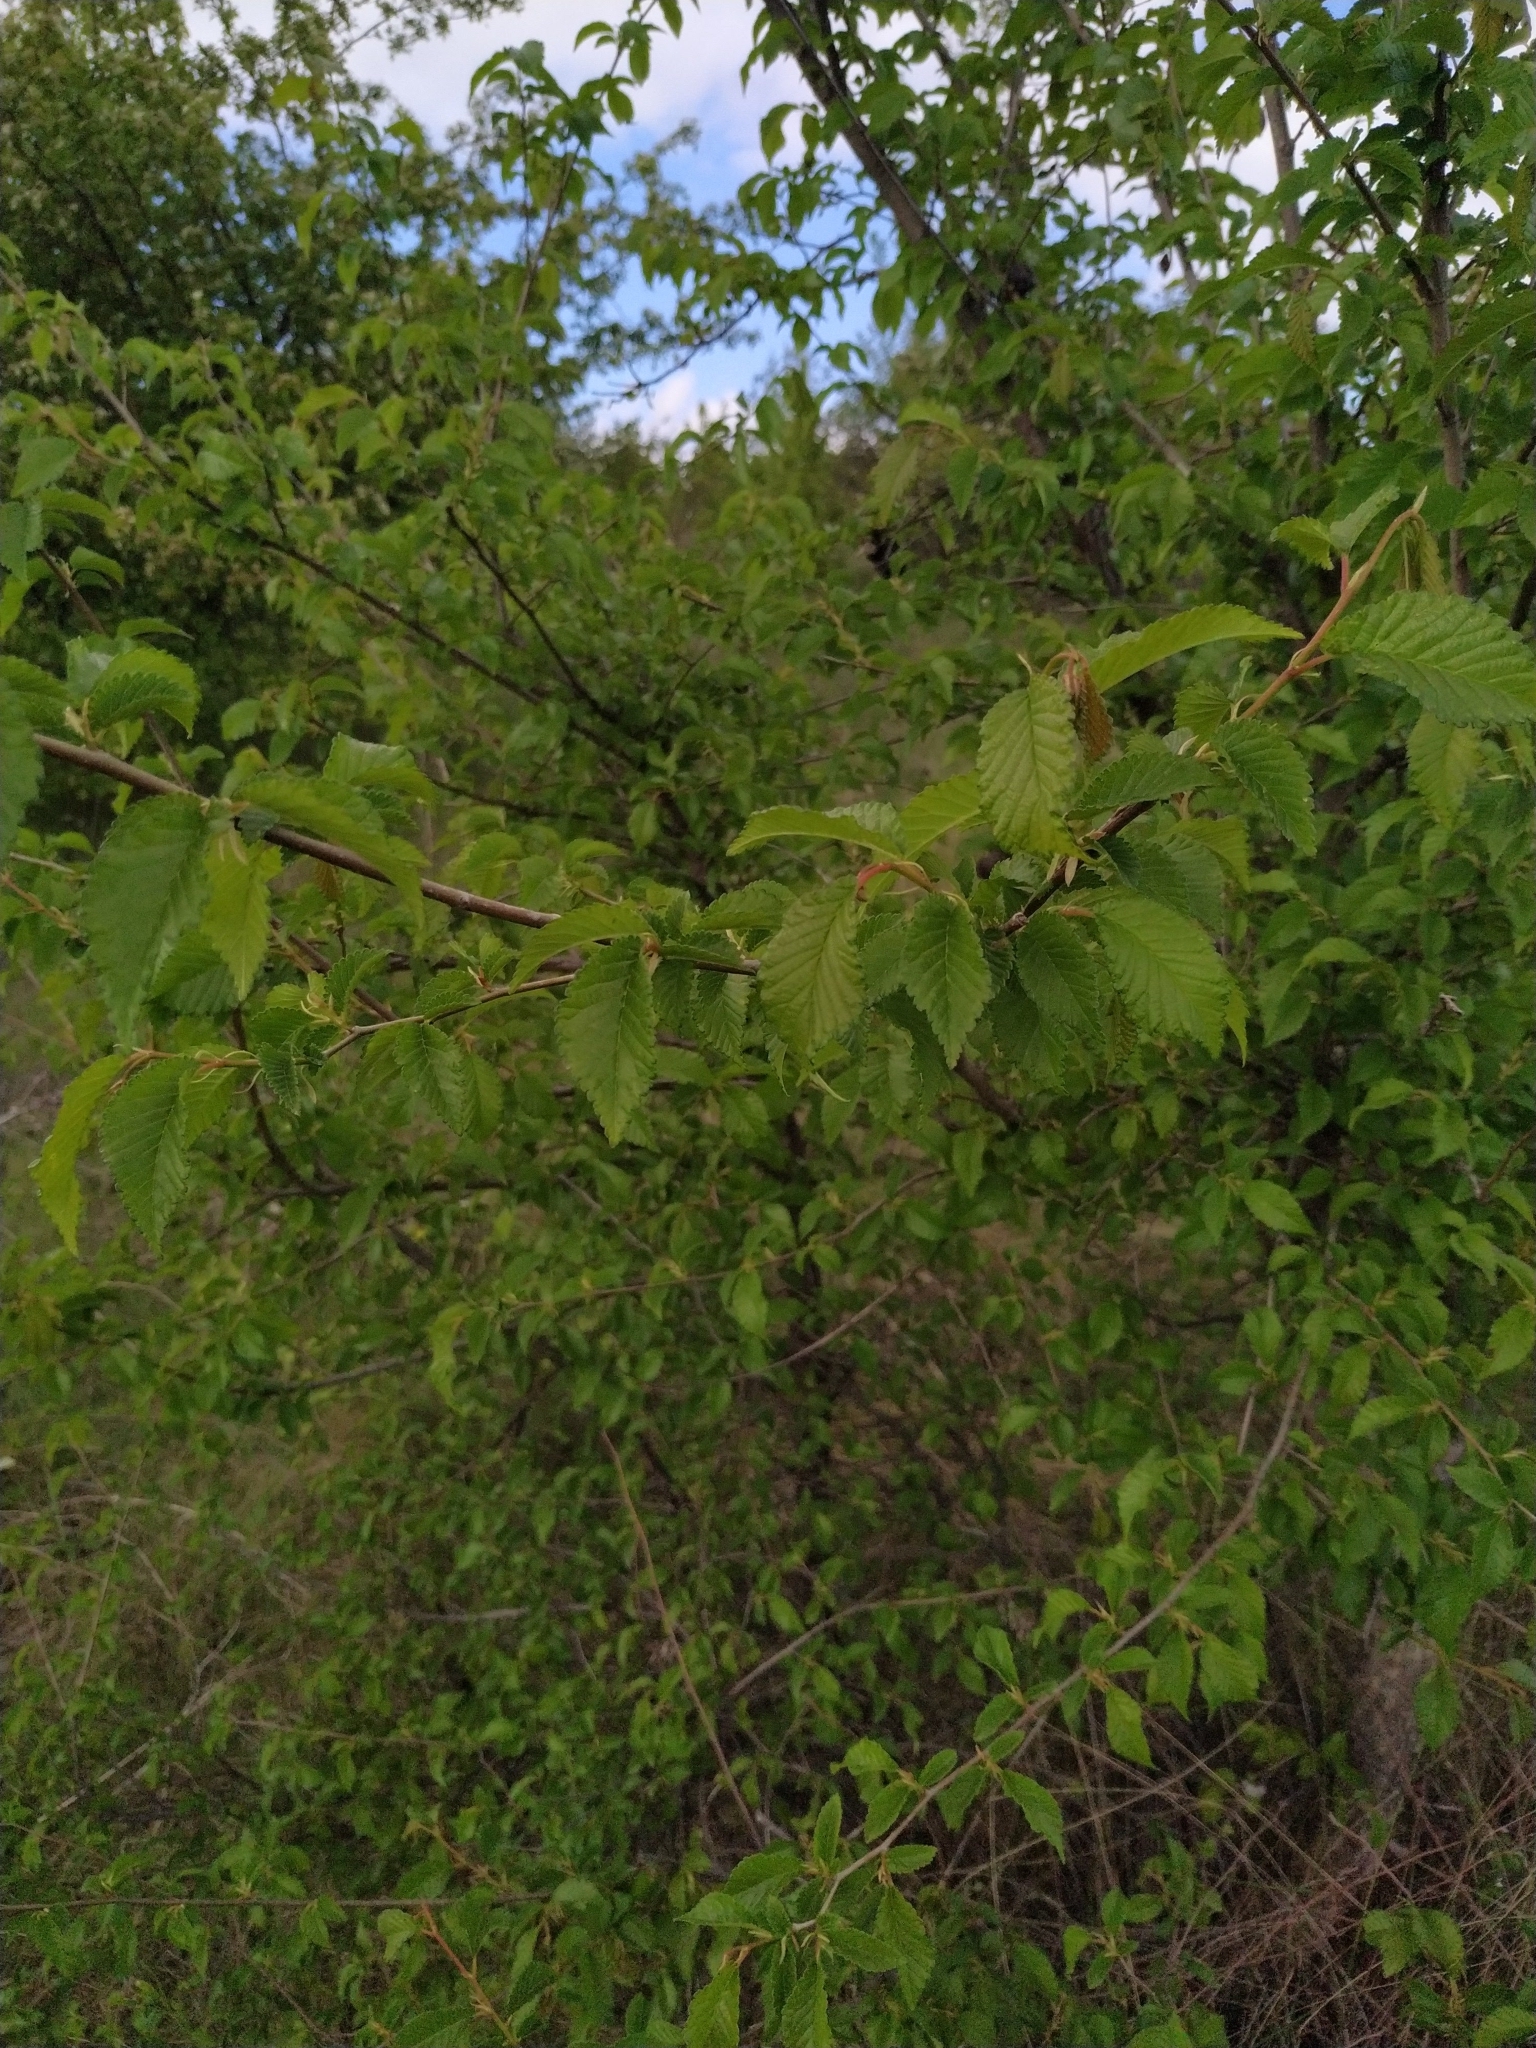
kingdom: Plantae
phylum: Tracheophyta
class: Magnoliopsida
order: Rosales
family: Ulmaceae
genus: Ulmus
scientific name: Ulmus minor
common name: Small-leaved elm
